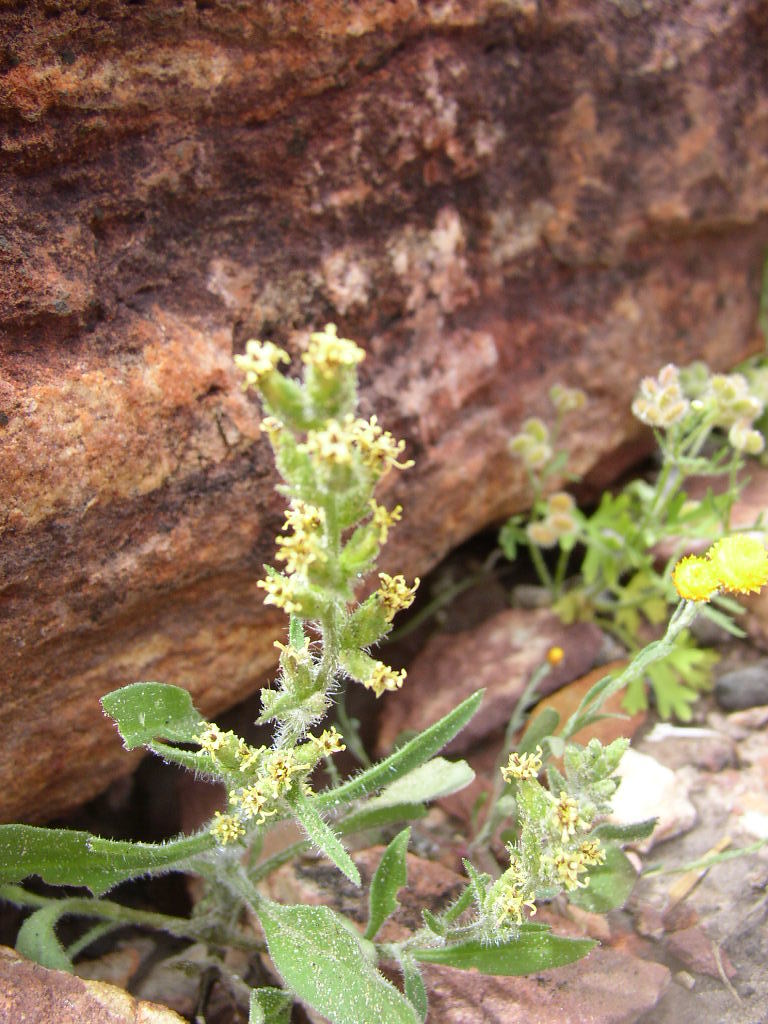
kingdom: Plantae
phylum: Tracheophyta
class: Magnoliopsida
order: Asterales
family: Asteraceae
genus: Rhodanthe
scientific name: Rhodanthe battii
